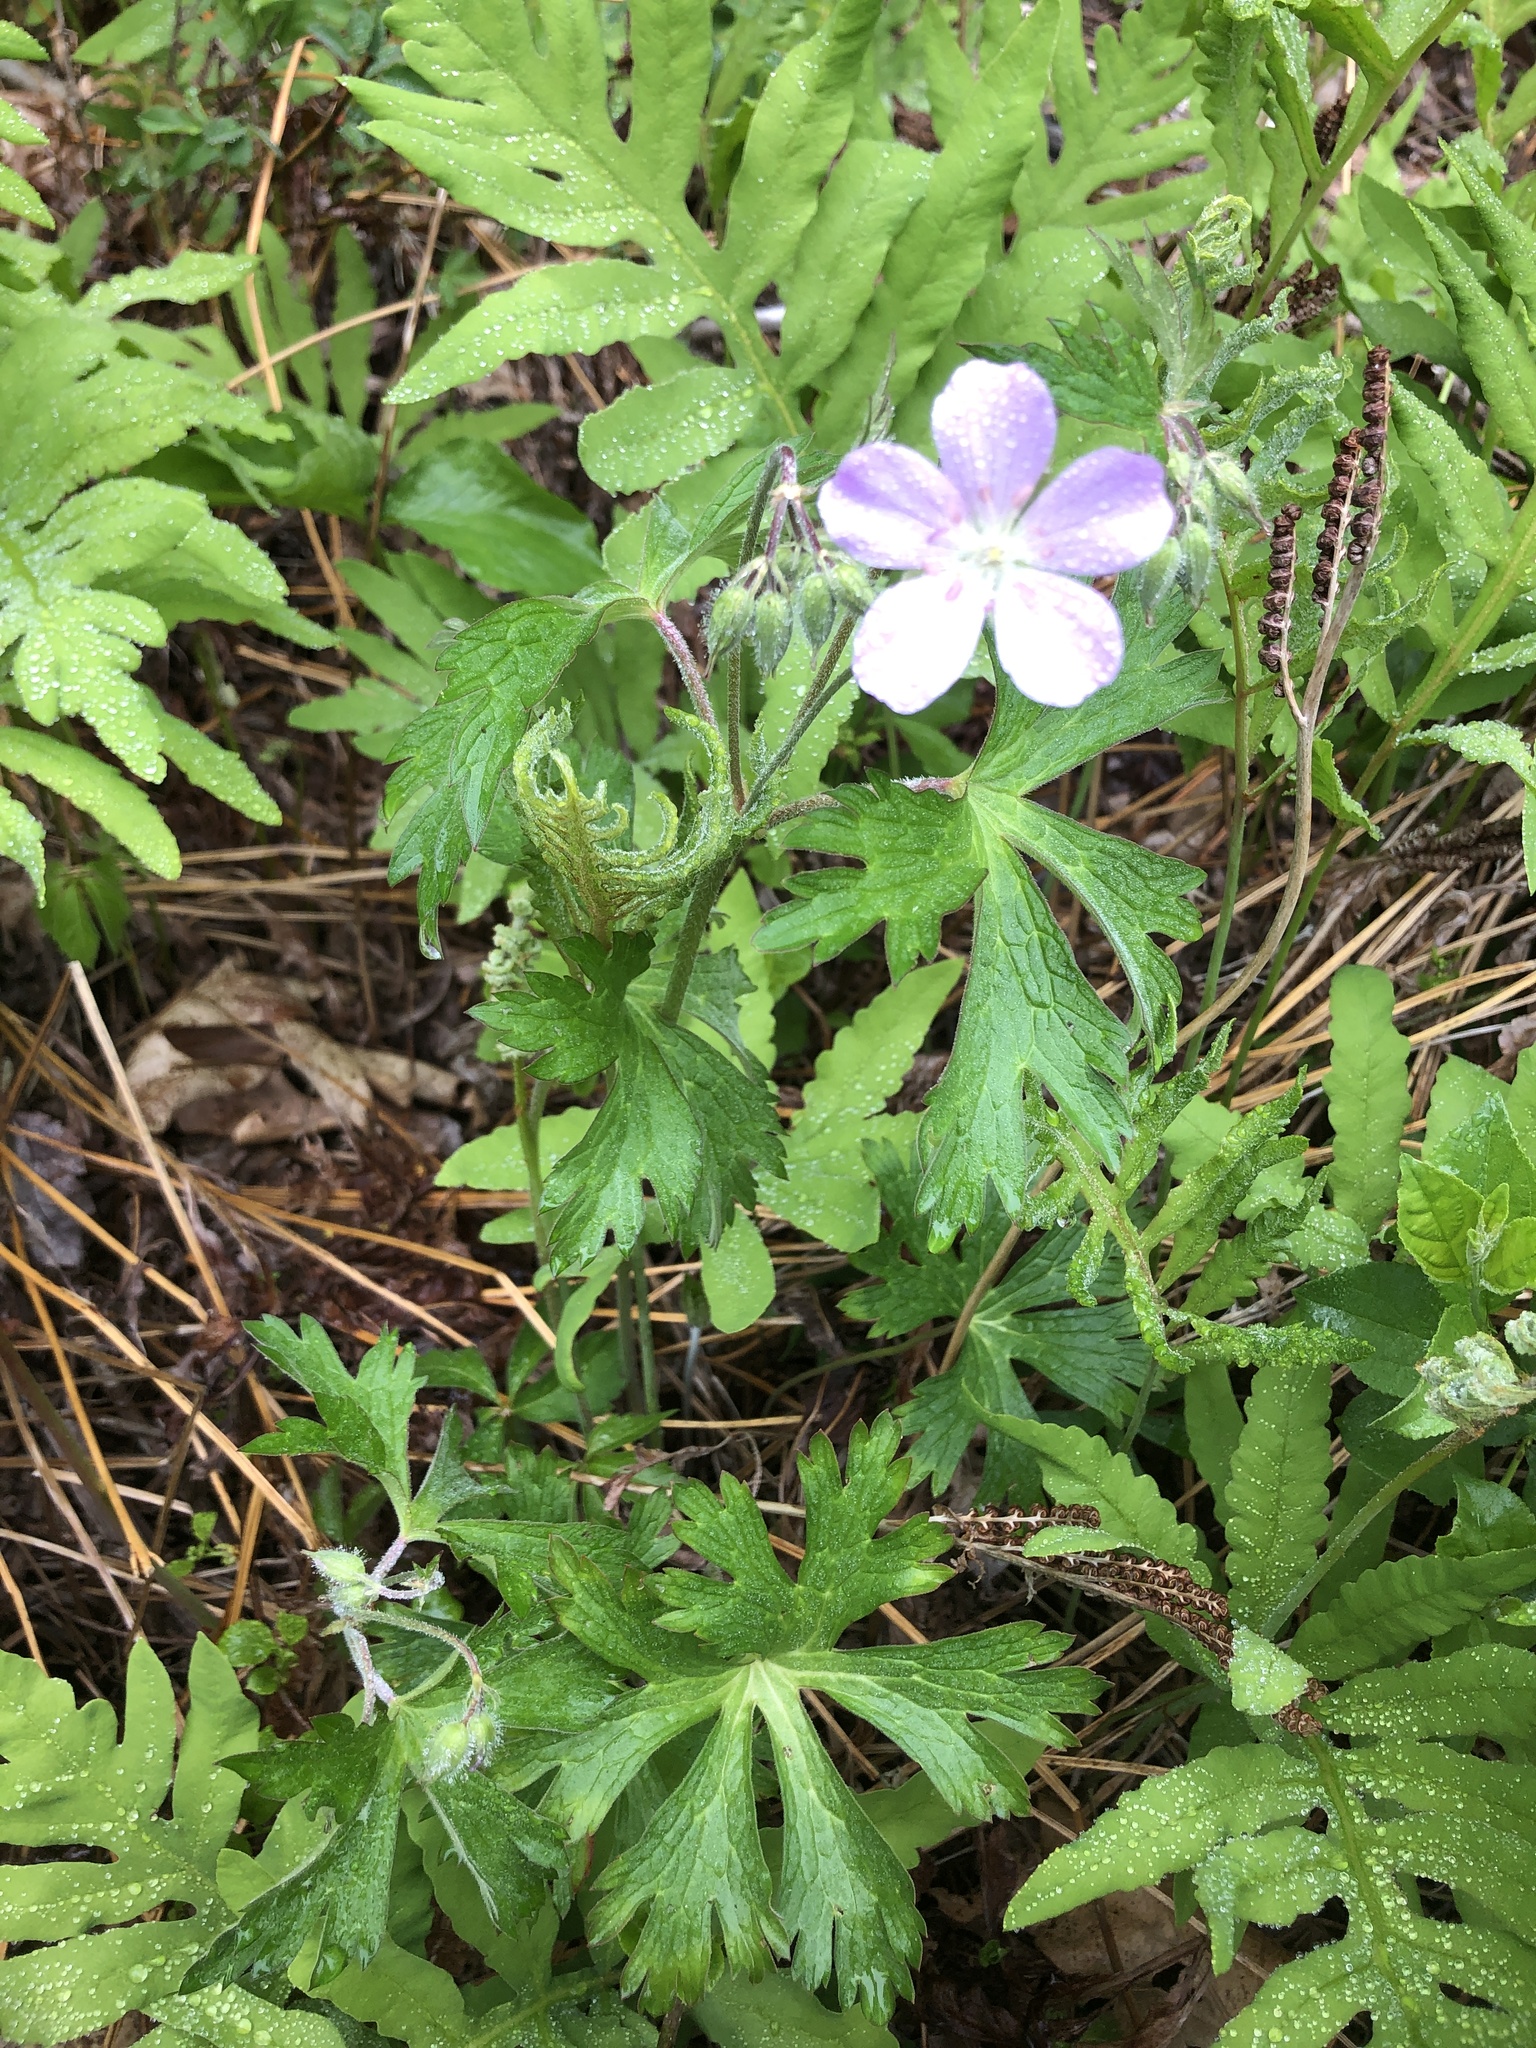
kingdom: Plantae
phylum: Tracheophyta
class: Magnoliopsida
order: Geraniales
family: Geraniaceae
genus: Geranium
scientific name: Geranium maculatum
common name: Spotted geranium
